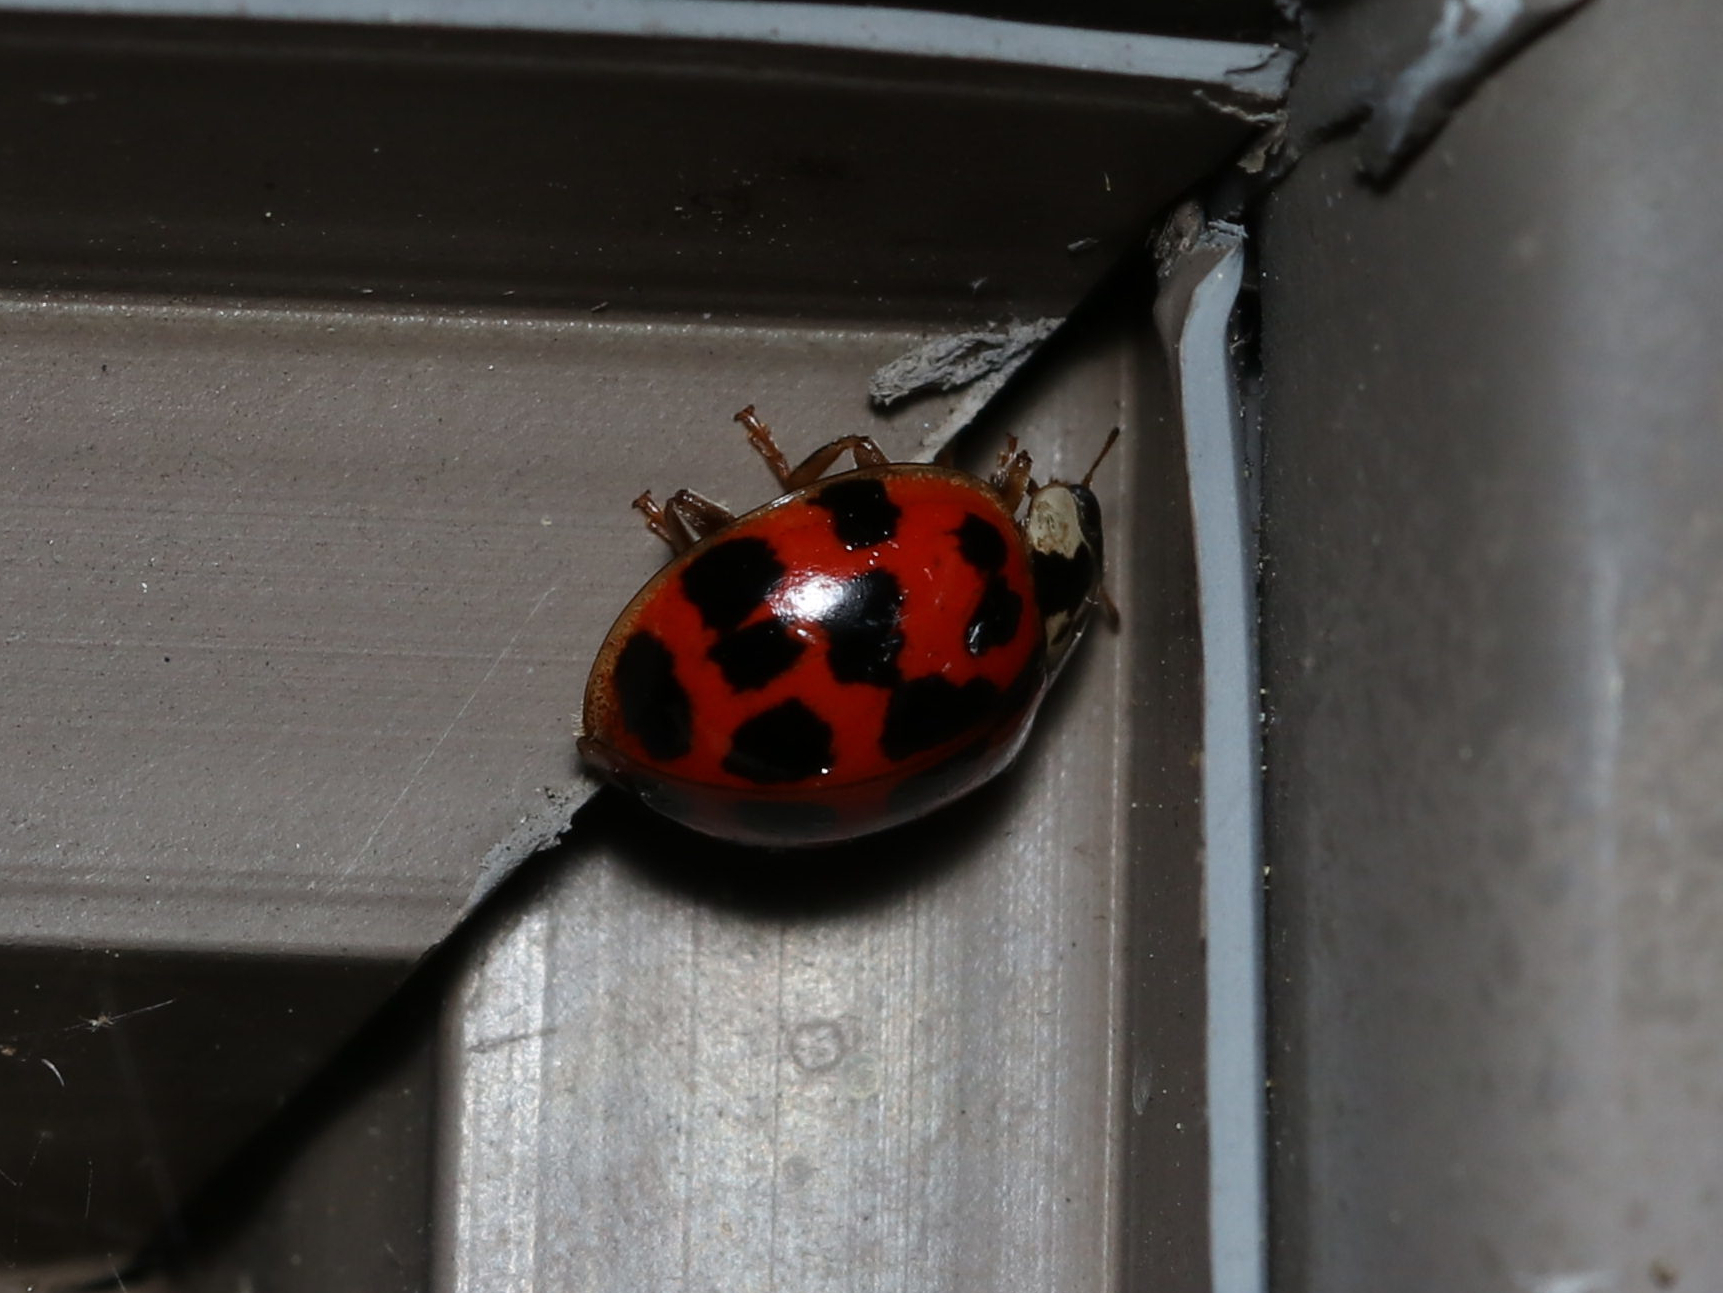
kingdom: Animalia
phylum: Arthropoda
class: Insecta
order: Coleoptera
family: Coccinellidae
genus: Harmonia
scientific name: Harmonia axyridis
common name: Harlequin ladybird
